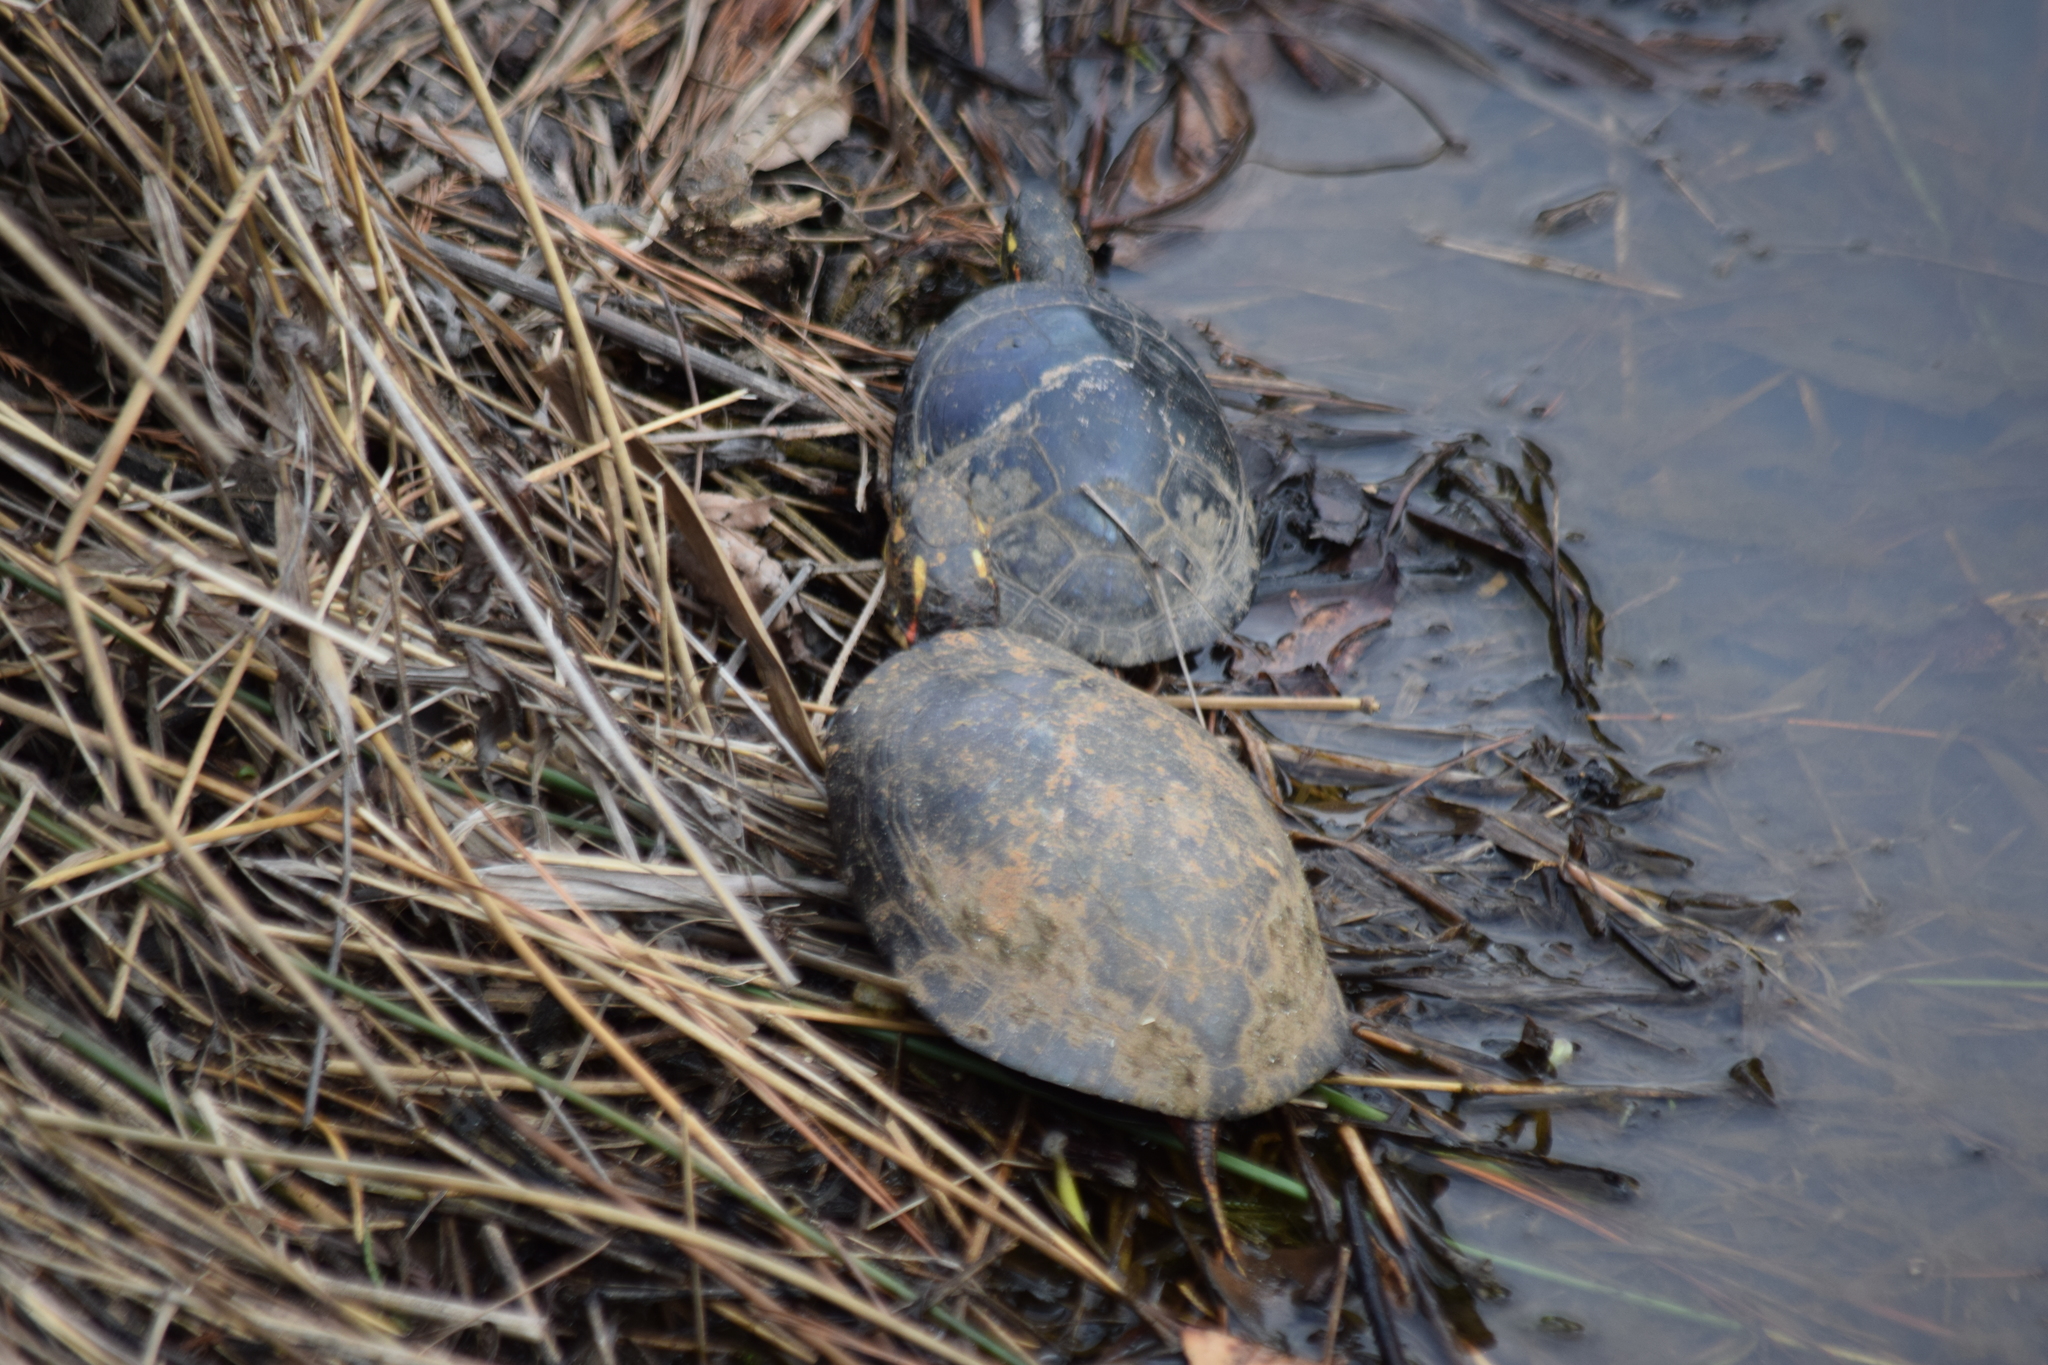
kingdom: Animalia
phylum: Chordata
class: Testudines
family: Emydidae
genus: Chrysemys
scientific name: Chrysemys picta
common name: Painted turtle
